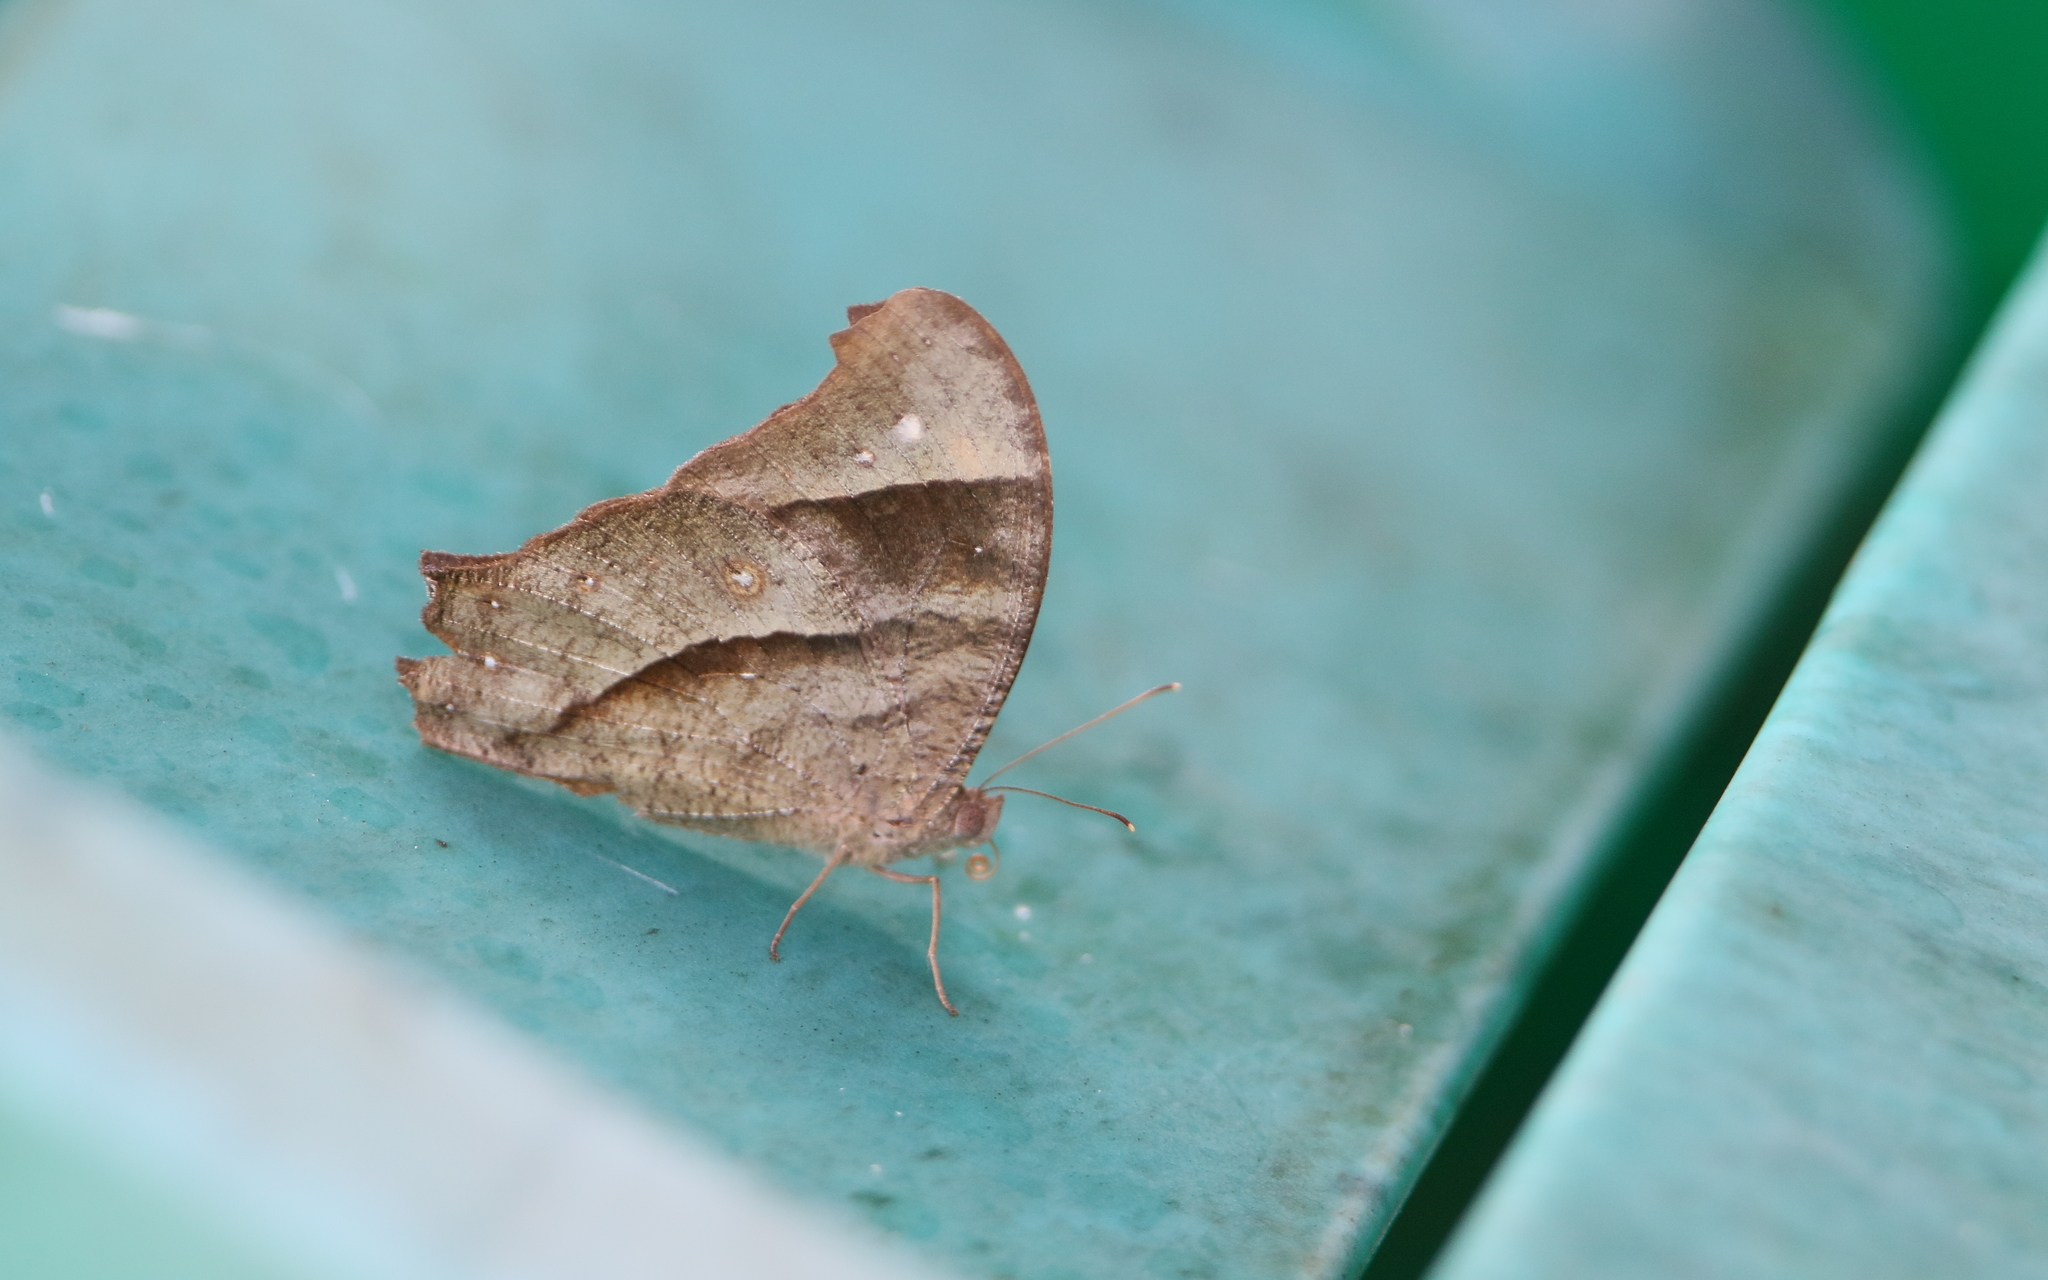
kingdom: Animalia
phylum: Arthropoda
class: Insecta
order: Lepidoptera
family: Nymphalidae
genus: Melanitis
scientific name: Melanitis phedima
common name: Dark evening brown
